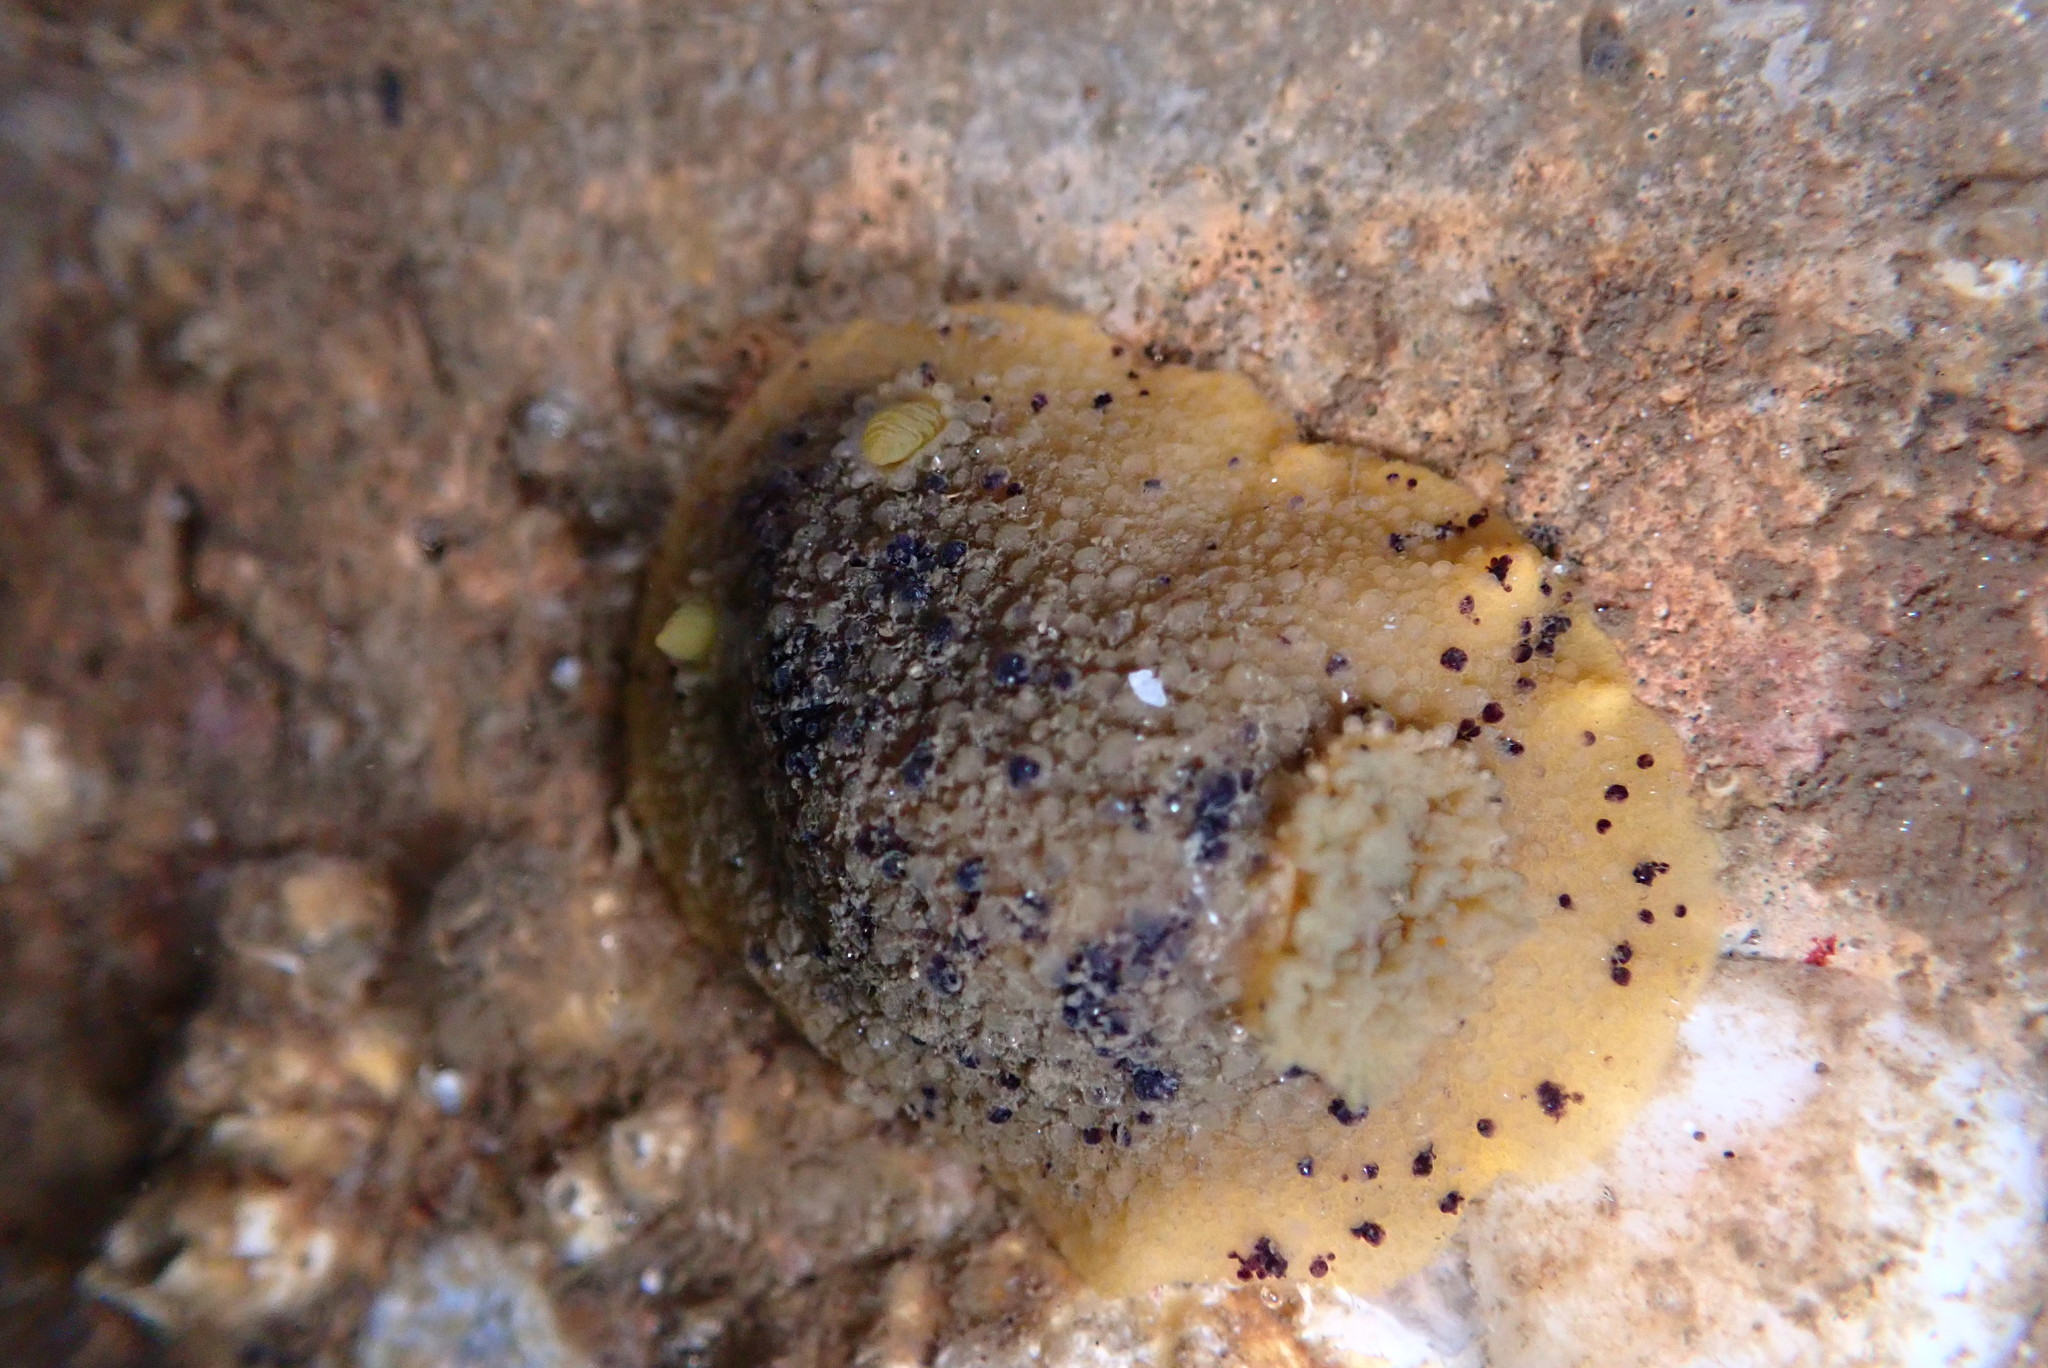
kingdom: Animalia
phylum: Mollusca
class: Gastropoda
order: Nudibranchia
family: Dorididae
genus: Doris
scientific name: Doris montereyensis
